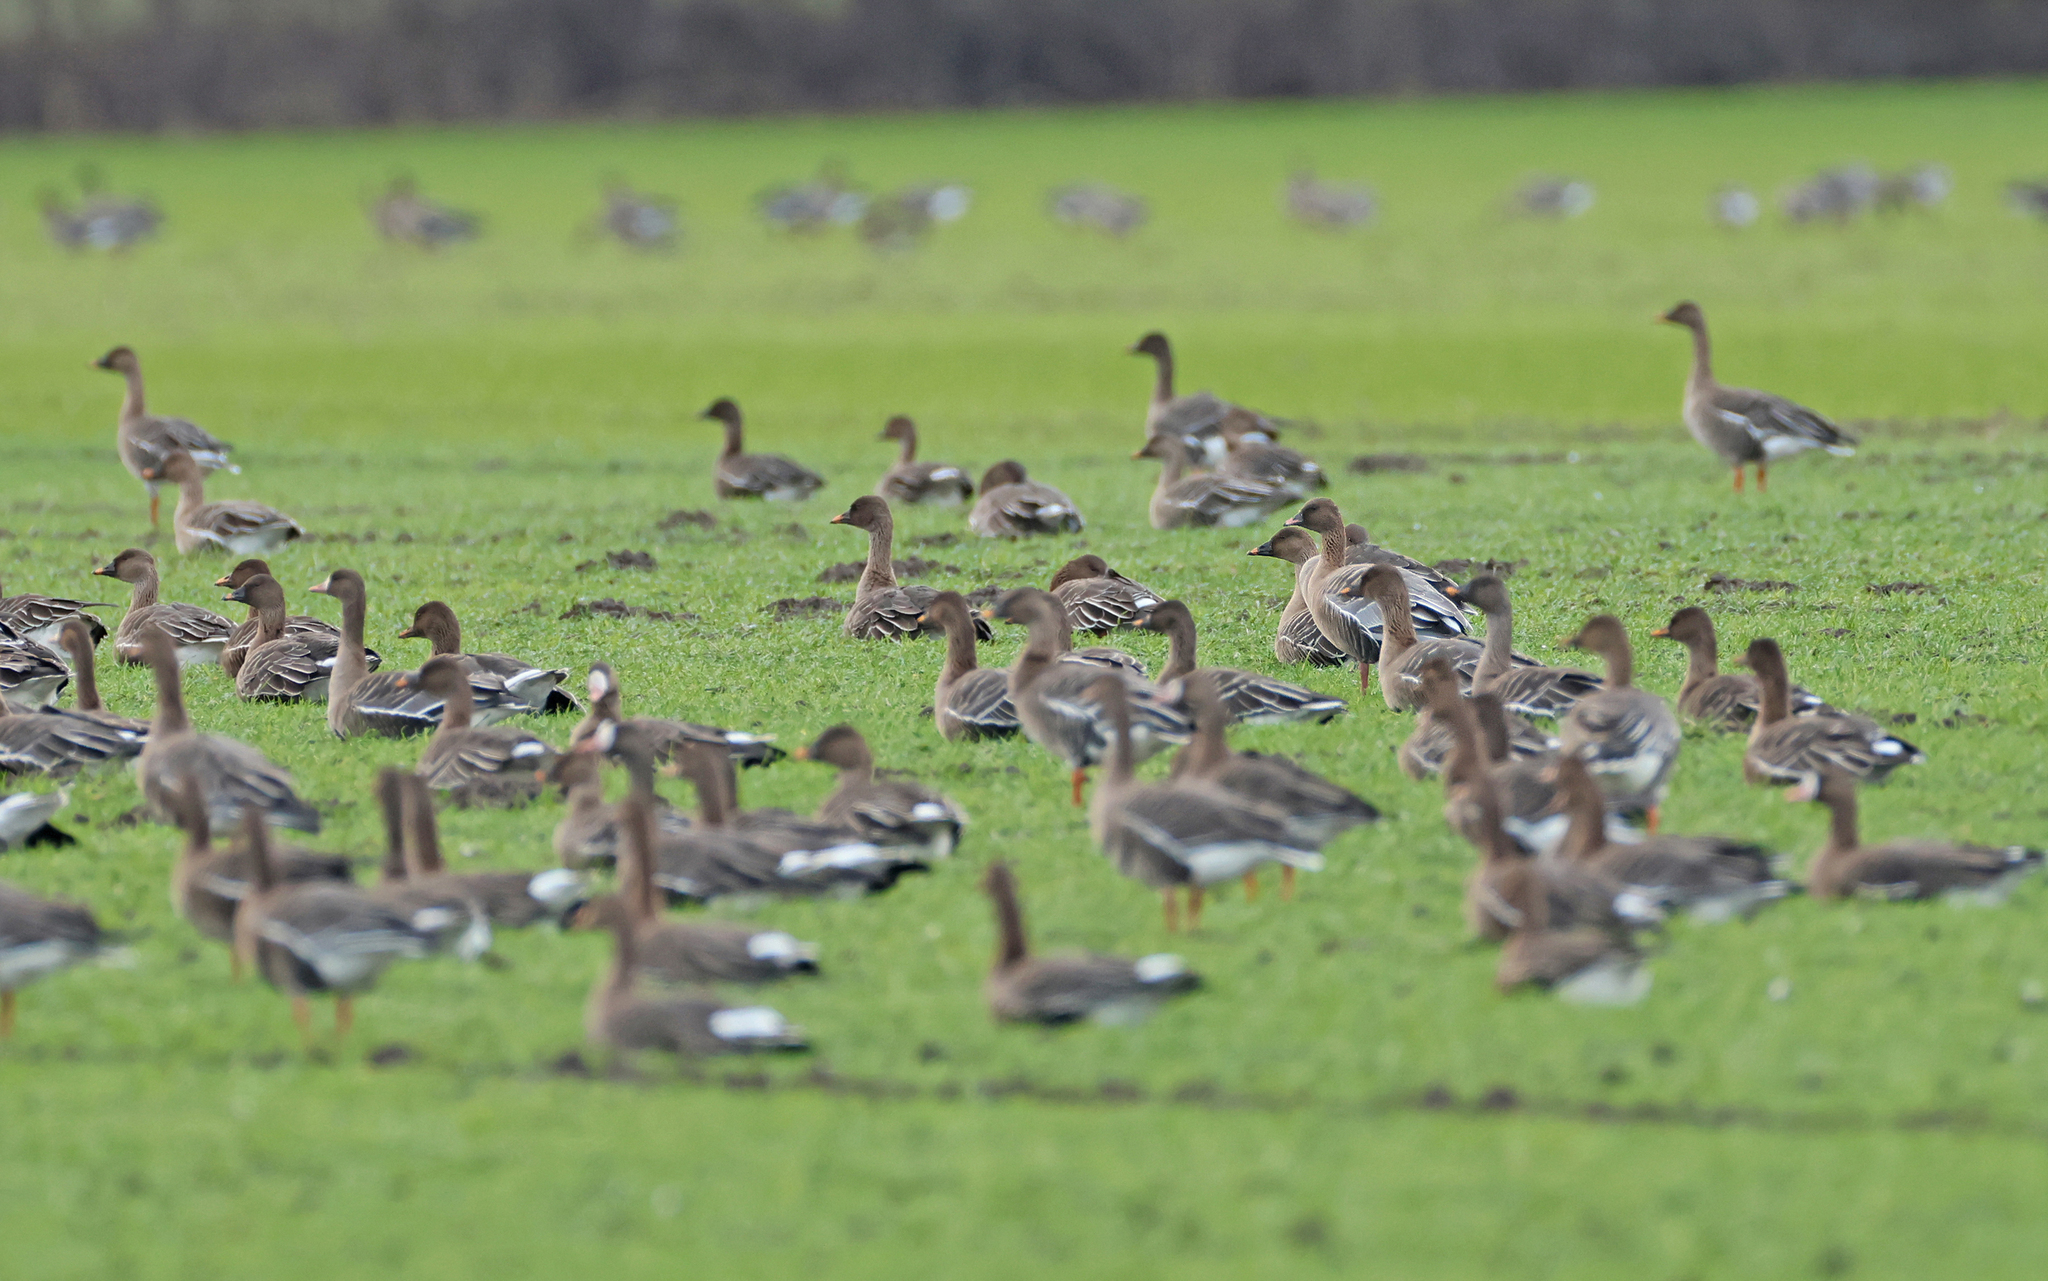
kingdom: Animalia
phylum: Chordata
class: Aves
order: Anseriformes
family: Anatidae
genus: Anser
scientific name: Anser brachyrhynchus
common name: Pink-footed goose
